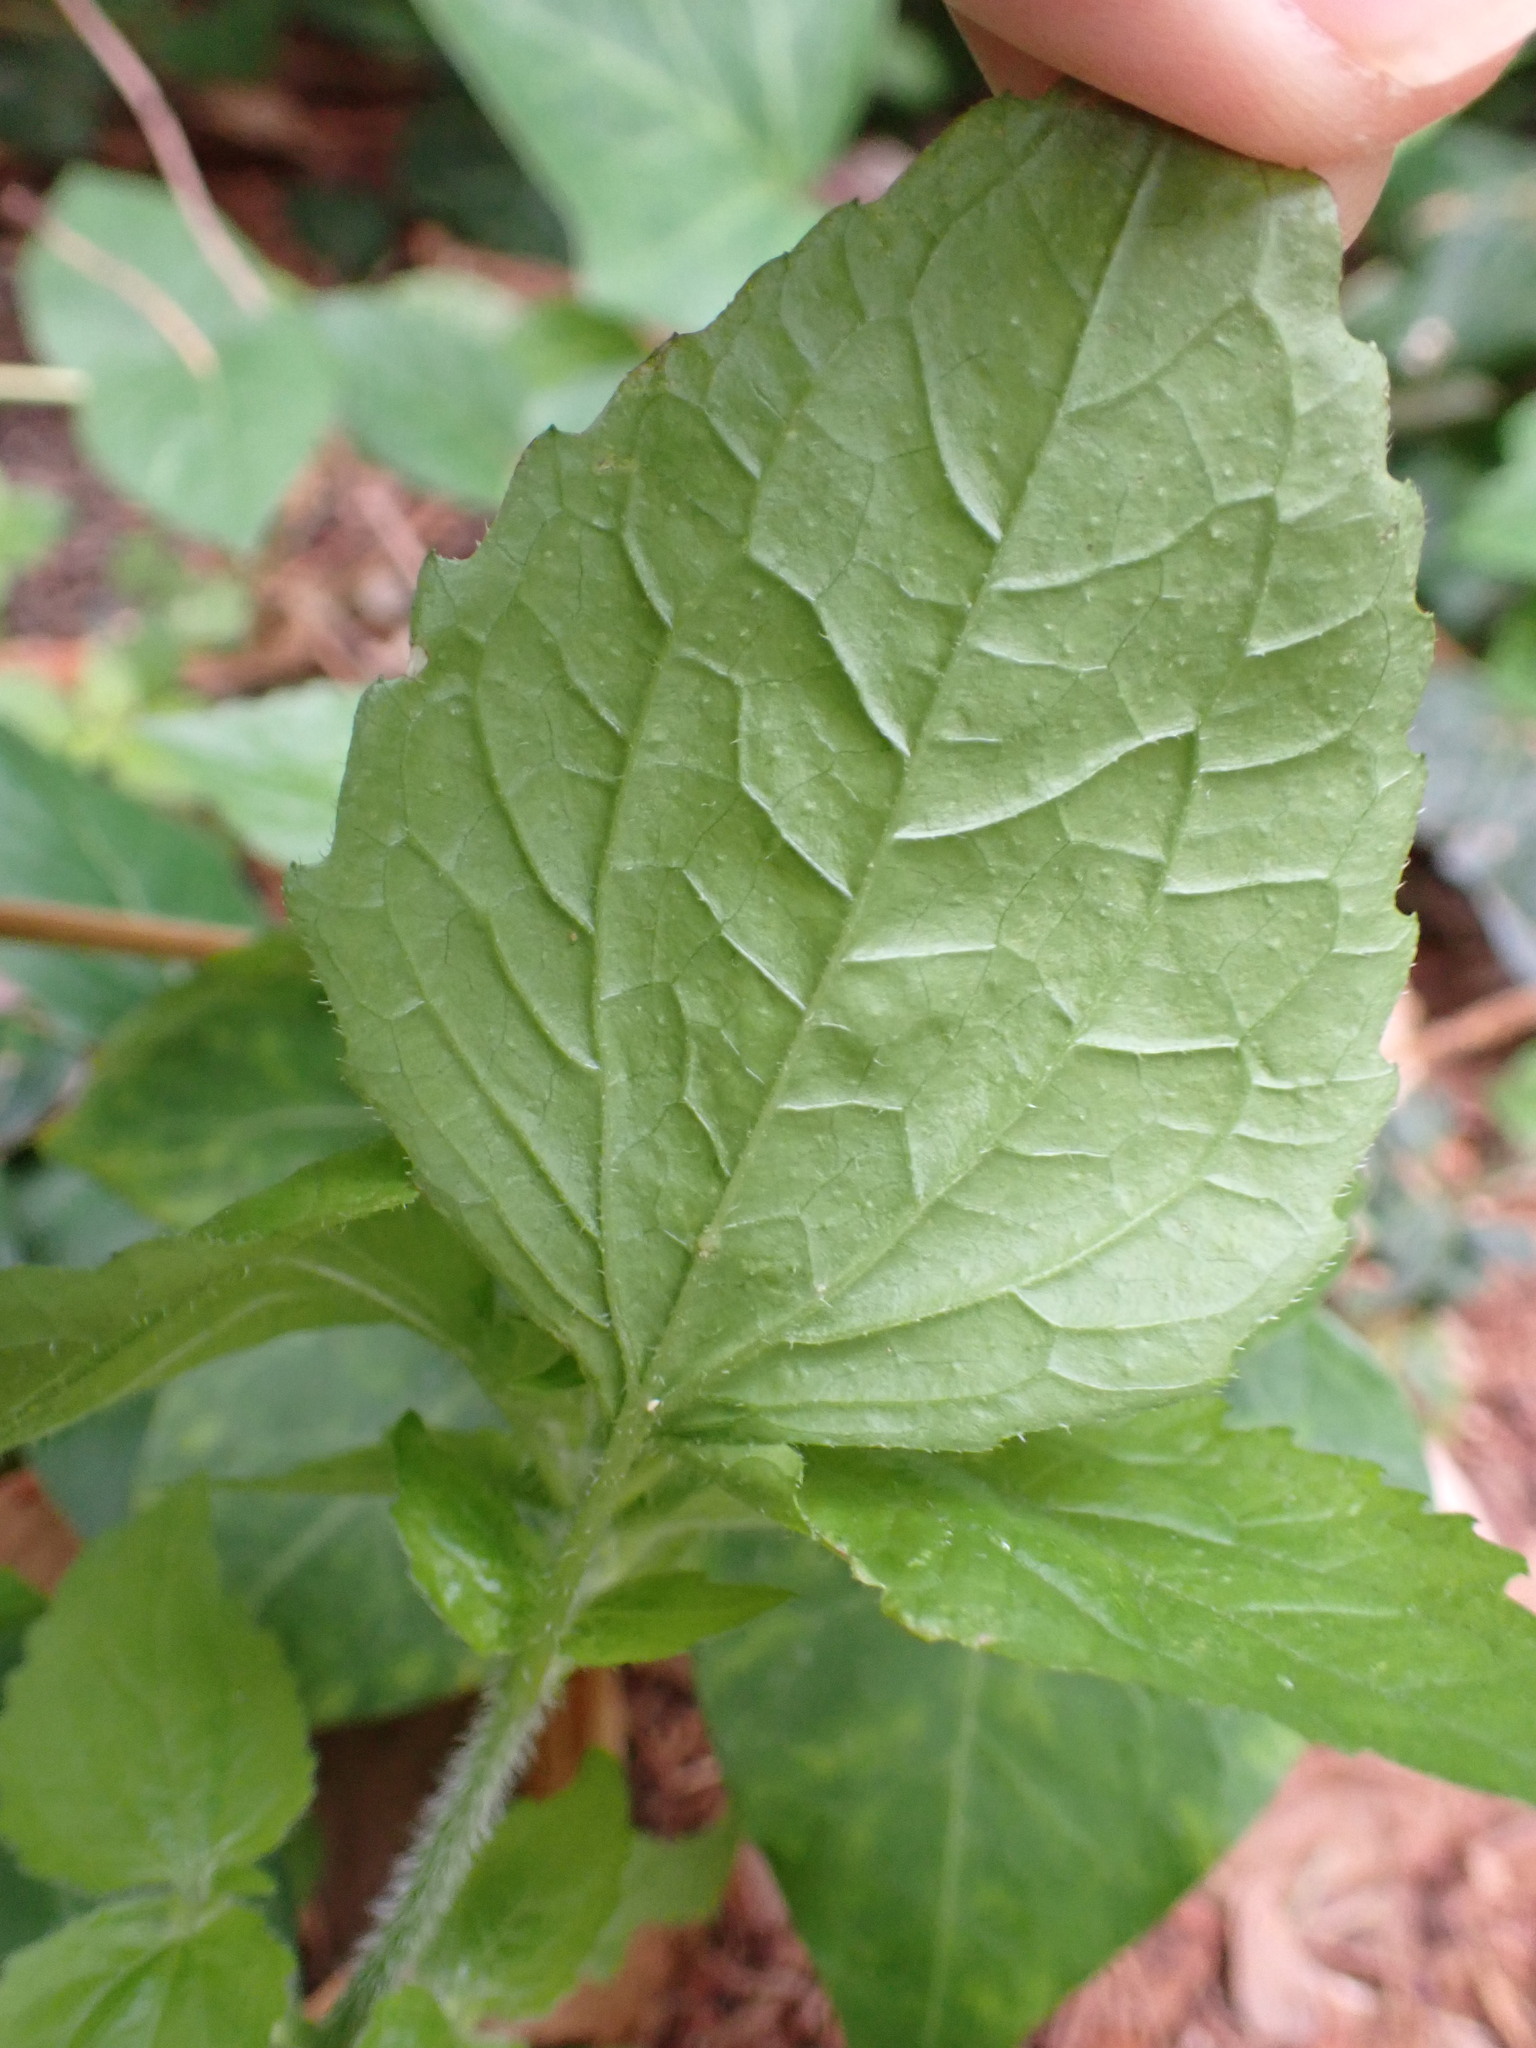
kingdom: Plantae
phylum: Tracheophyta
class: Magnoliopsida
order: Asterales
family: Asteraceae
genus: Galinsoga
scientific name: Galinsoga quadriradiata
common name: Shaggy soldier
